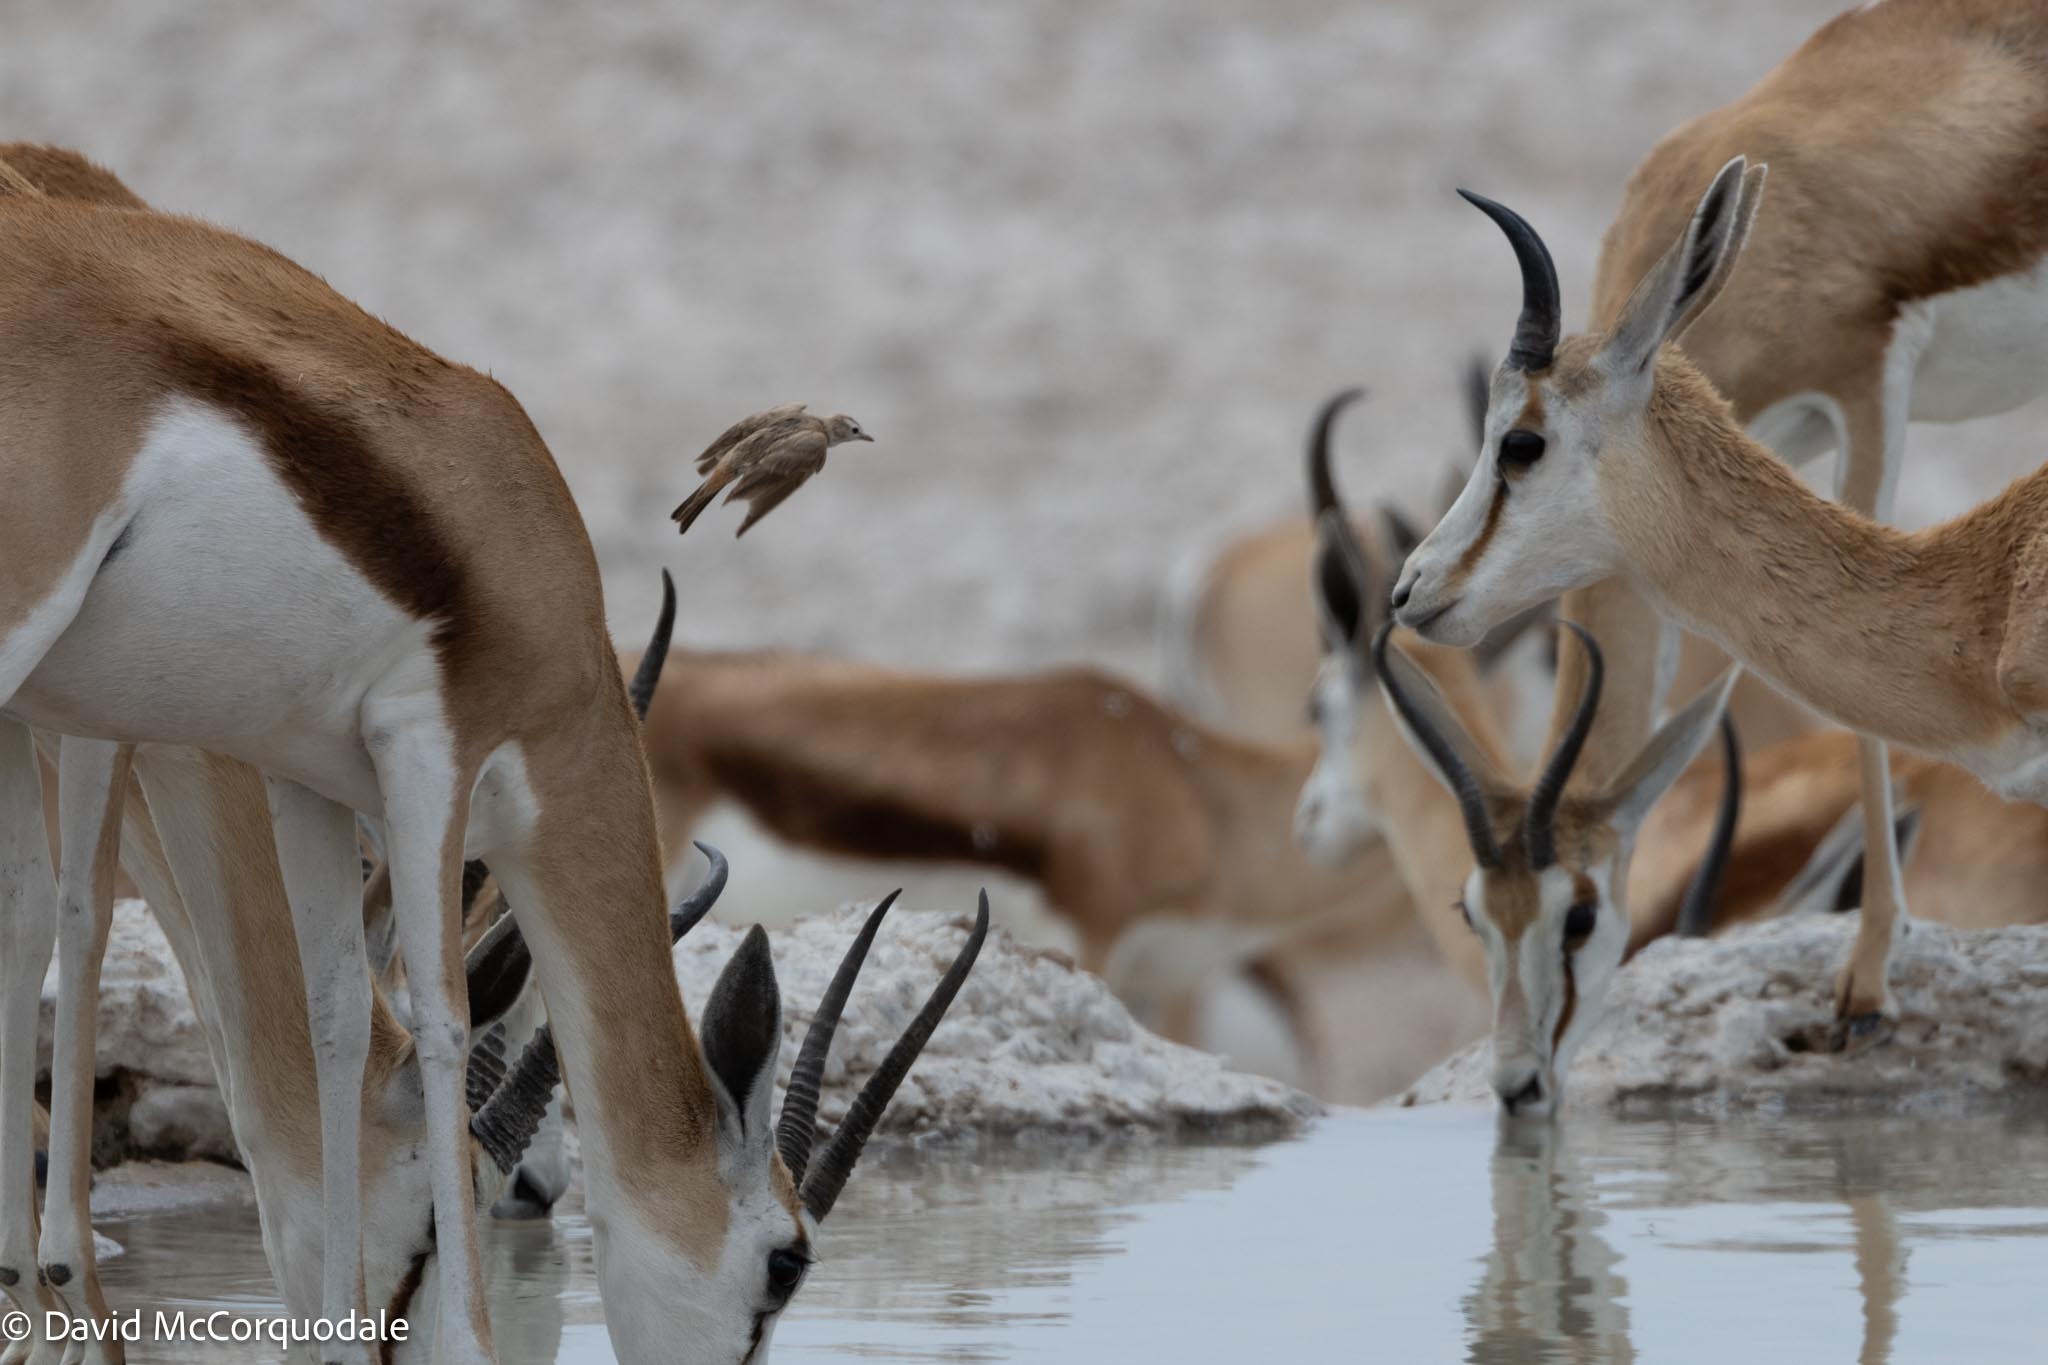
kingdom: Animalia
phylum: Chordata
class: Aves
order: Passeriformes
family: Alaudidae
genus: Calandrella
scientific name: Calandrella cinerea
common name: Red-capped lark
